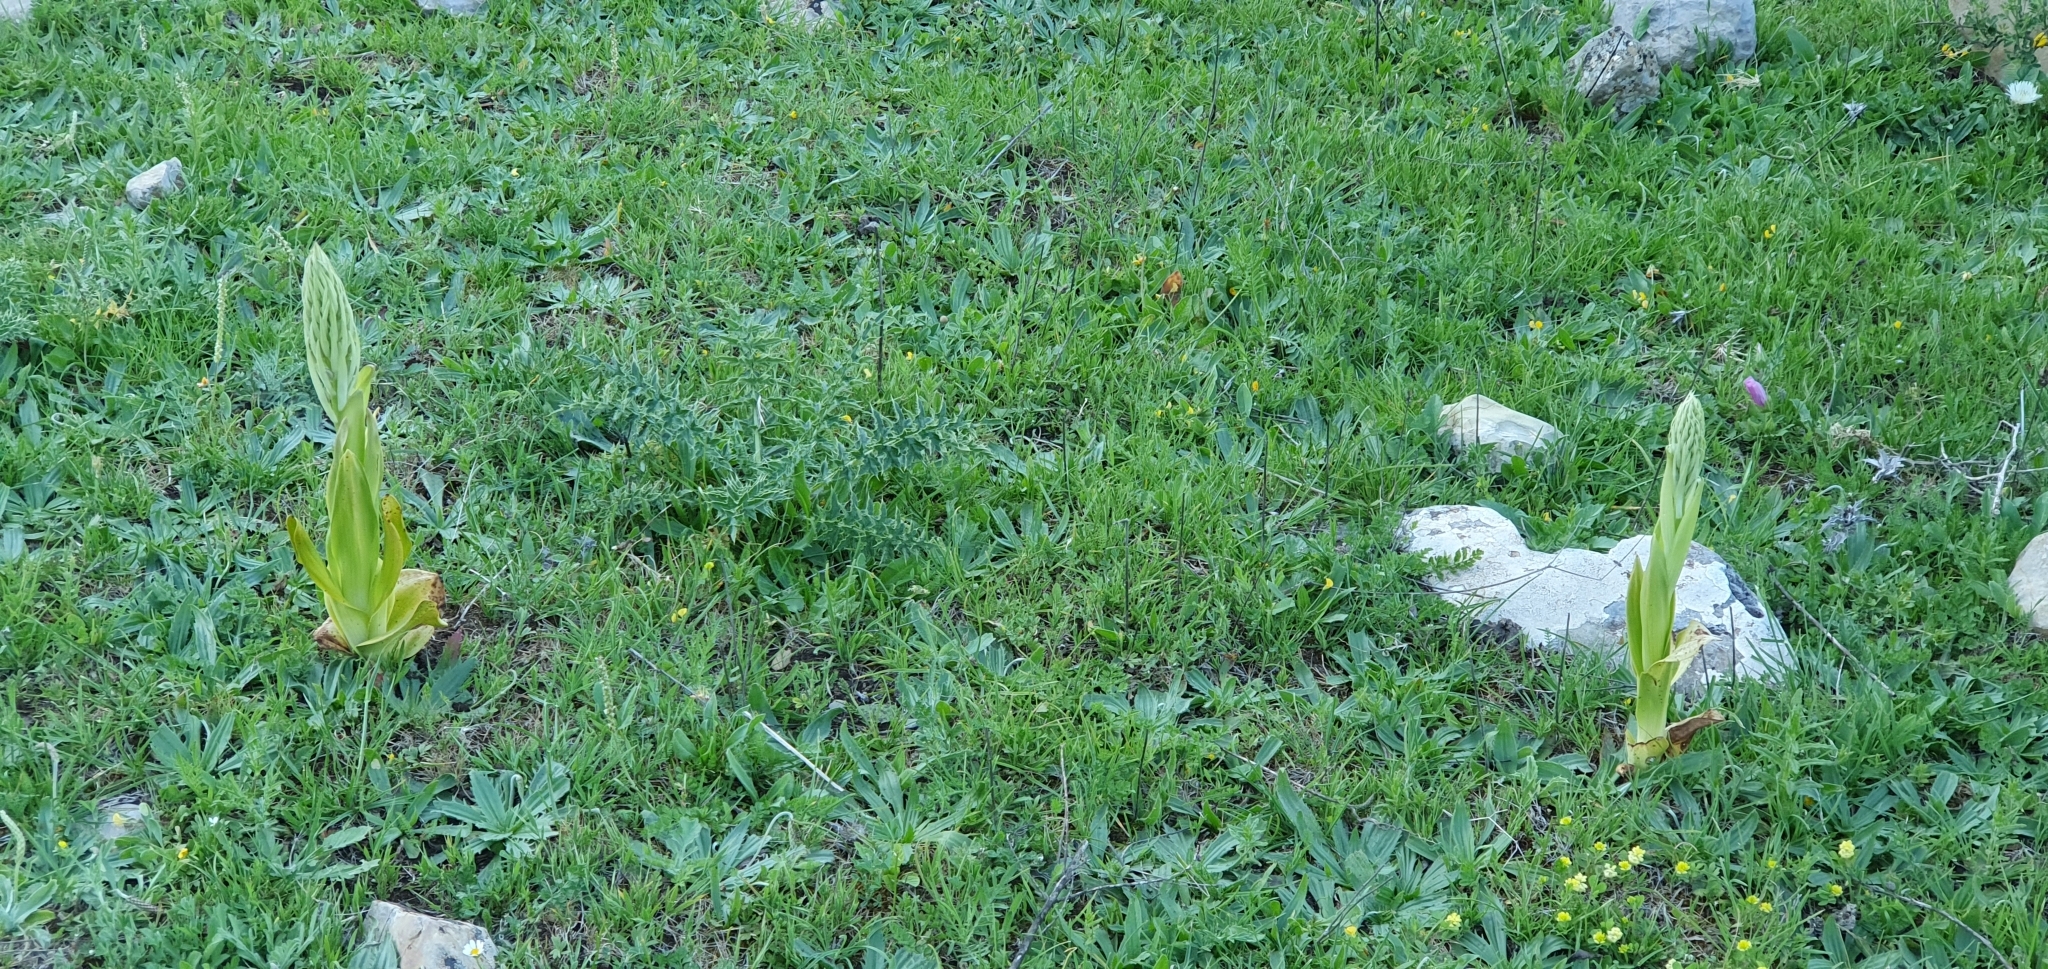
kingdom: Plantae
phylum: Tracheophyta
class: Liliopsida
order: Asparagales
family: Orchidaceae
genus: Himantoglossum
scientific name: Himantoglossum hircinum
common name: Lizard orchid
